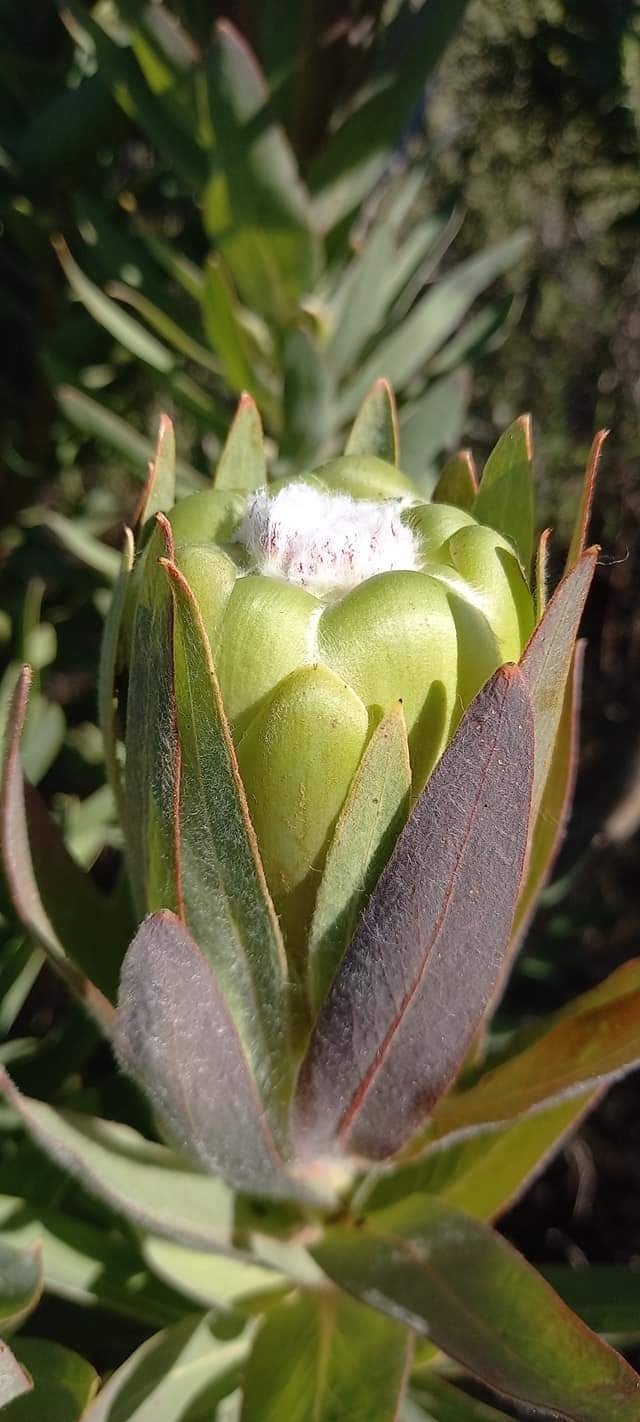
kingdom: Plantae
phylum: Tracheophyta
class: Magnoliopsida
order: Proteales
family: Proteaceae
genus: Protea
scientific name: Protea coronata
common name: Green sugarbush
